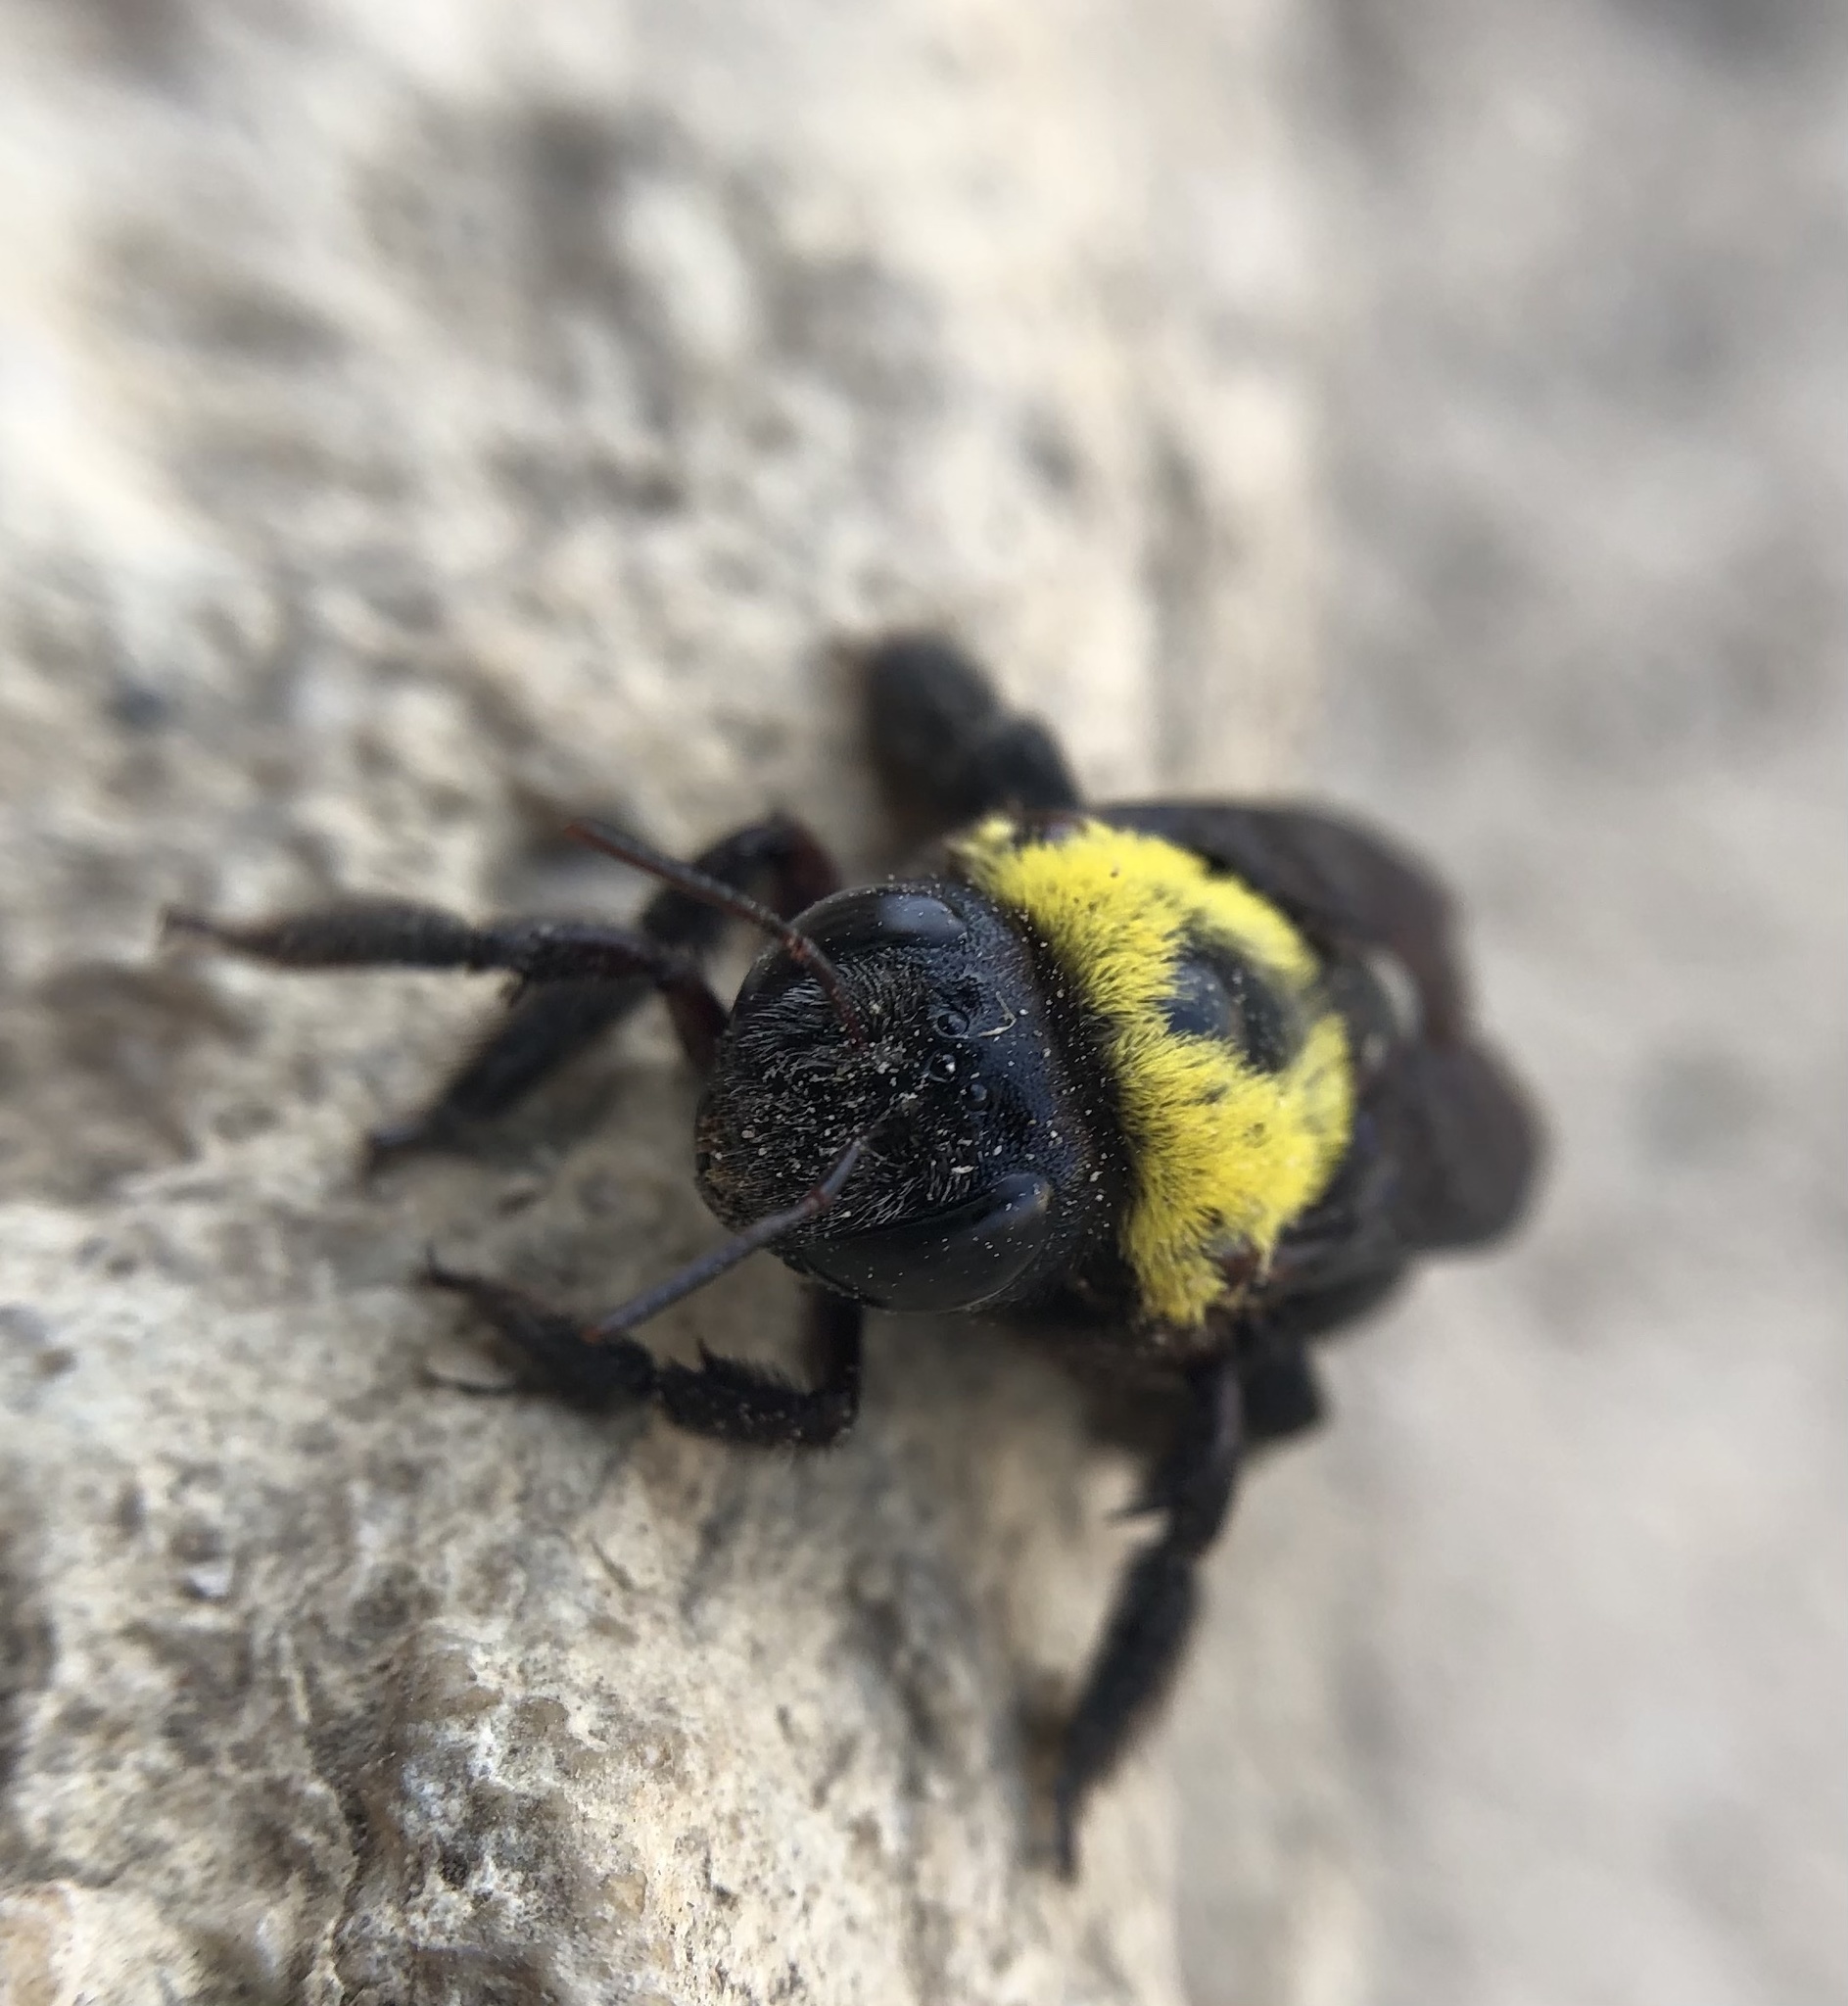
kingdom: Animalia
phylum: Arthropoda
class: Insecta
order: Hymenoptera
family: Apidae
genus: Xylocopa
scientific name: Xylocopa pubescens
